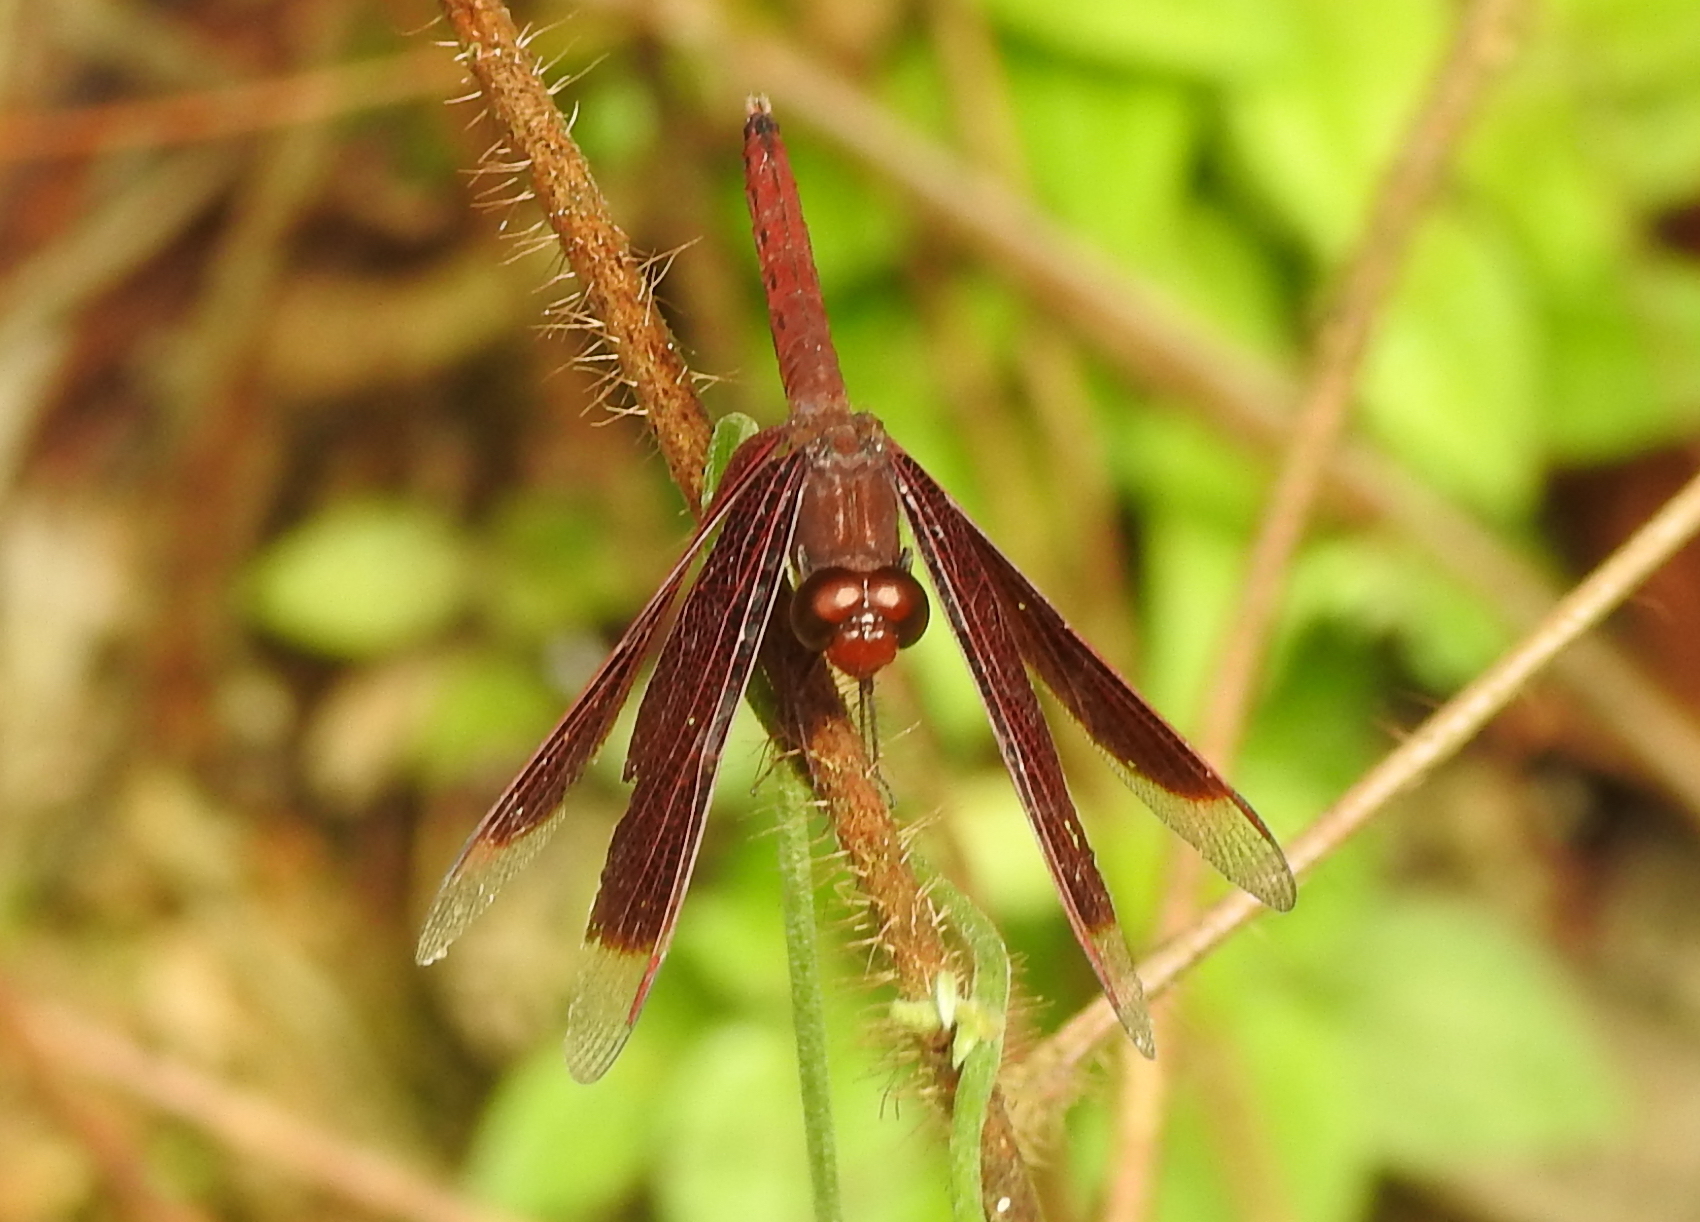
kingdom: Animalia
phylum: Arthropoda
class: Insecta
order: Odonata
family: Libellulidae
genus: Neurothemis
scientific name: Neurothemis fluctuans
